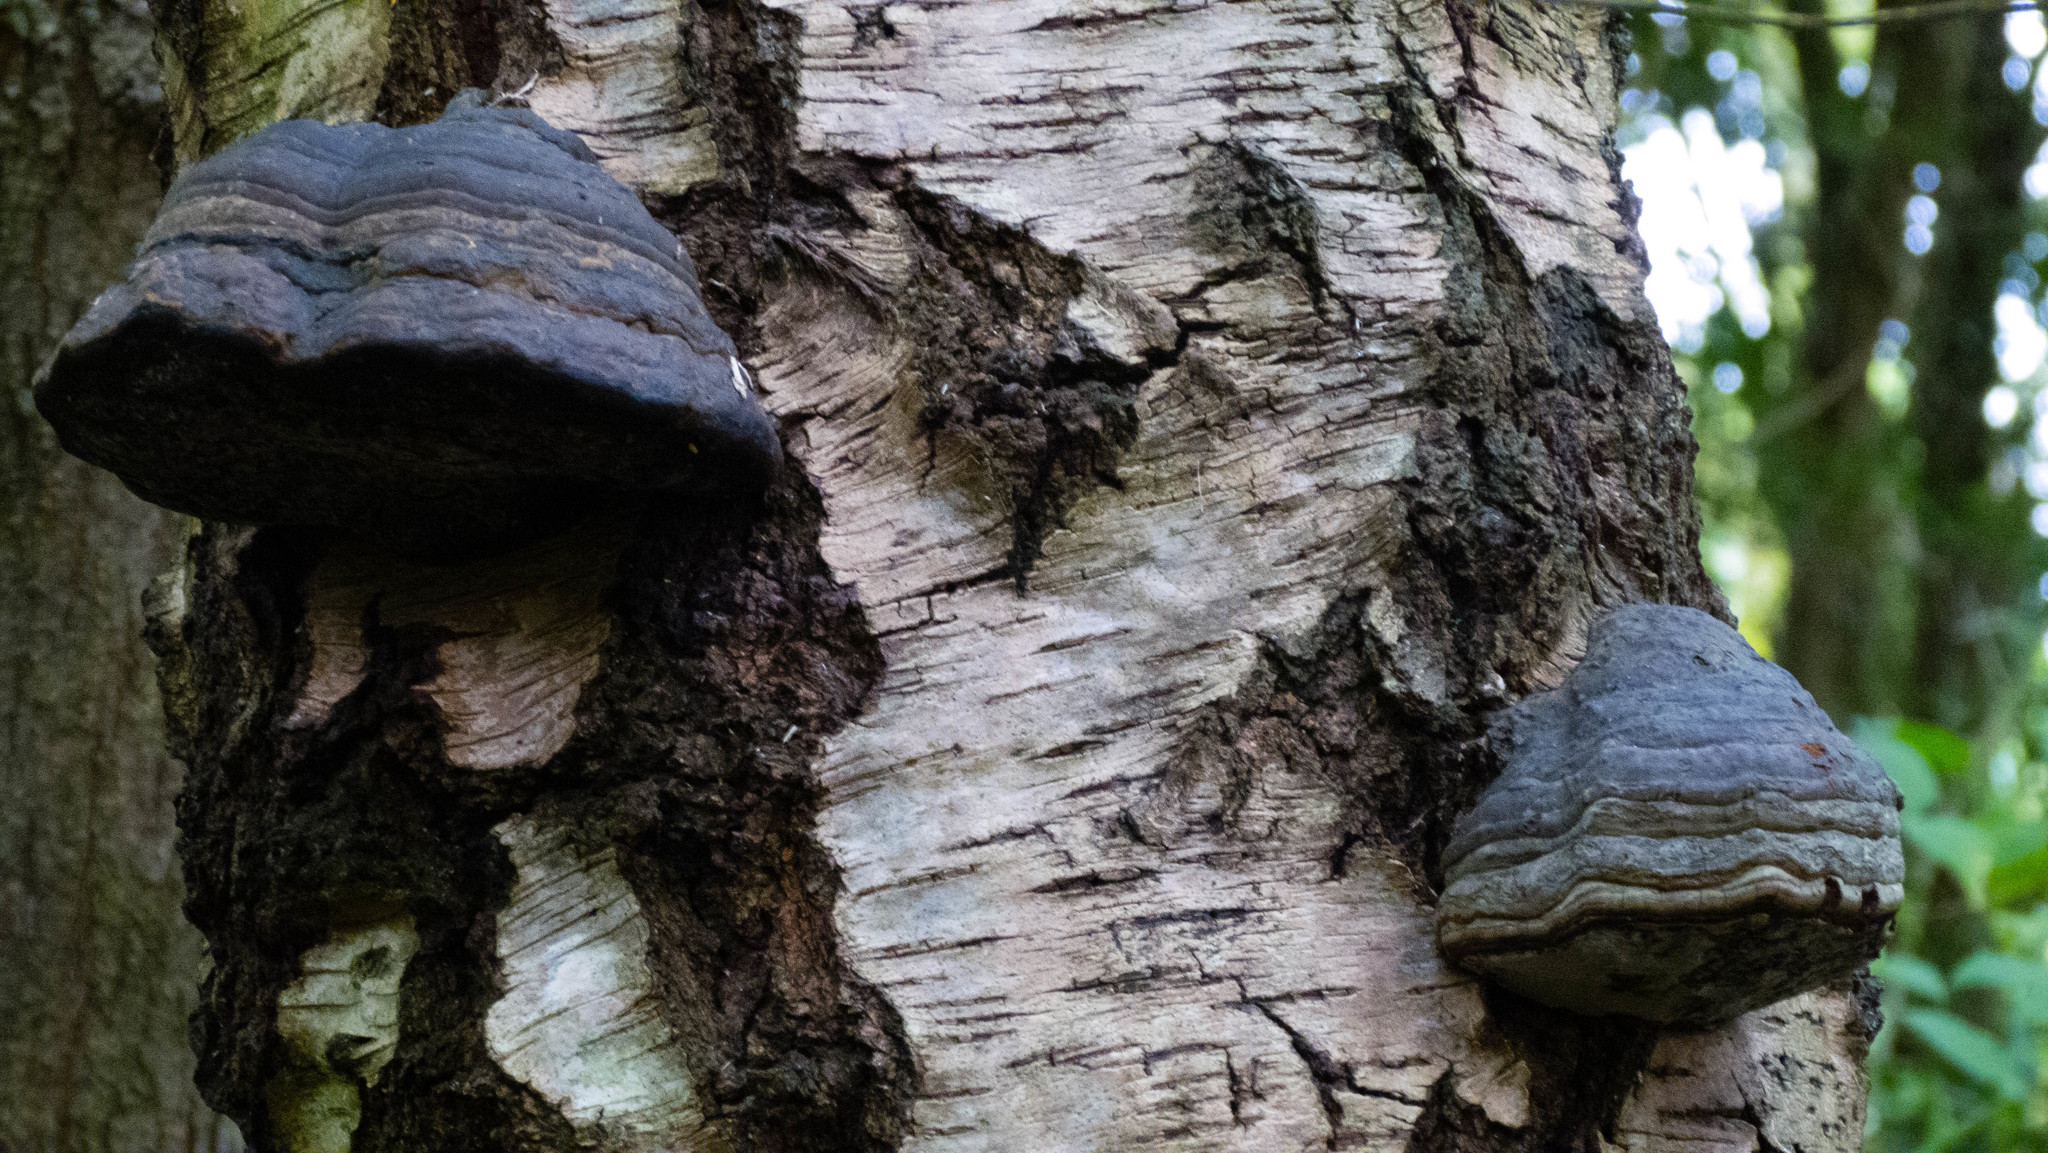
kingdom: Fungi
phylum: Basidiomycota
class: Agaricomycetes
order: Polyporales
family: Polyporaceae
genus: Fomes
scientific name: Fomes fomentarius
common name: Hoof fungus
